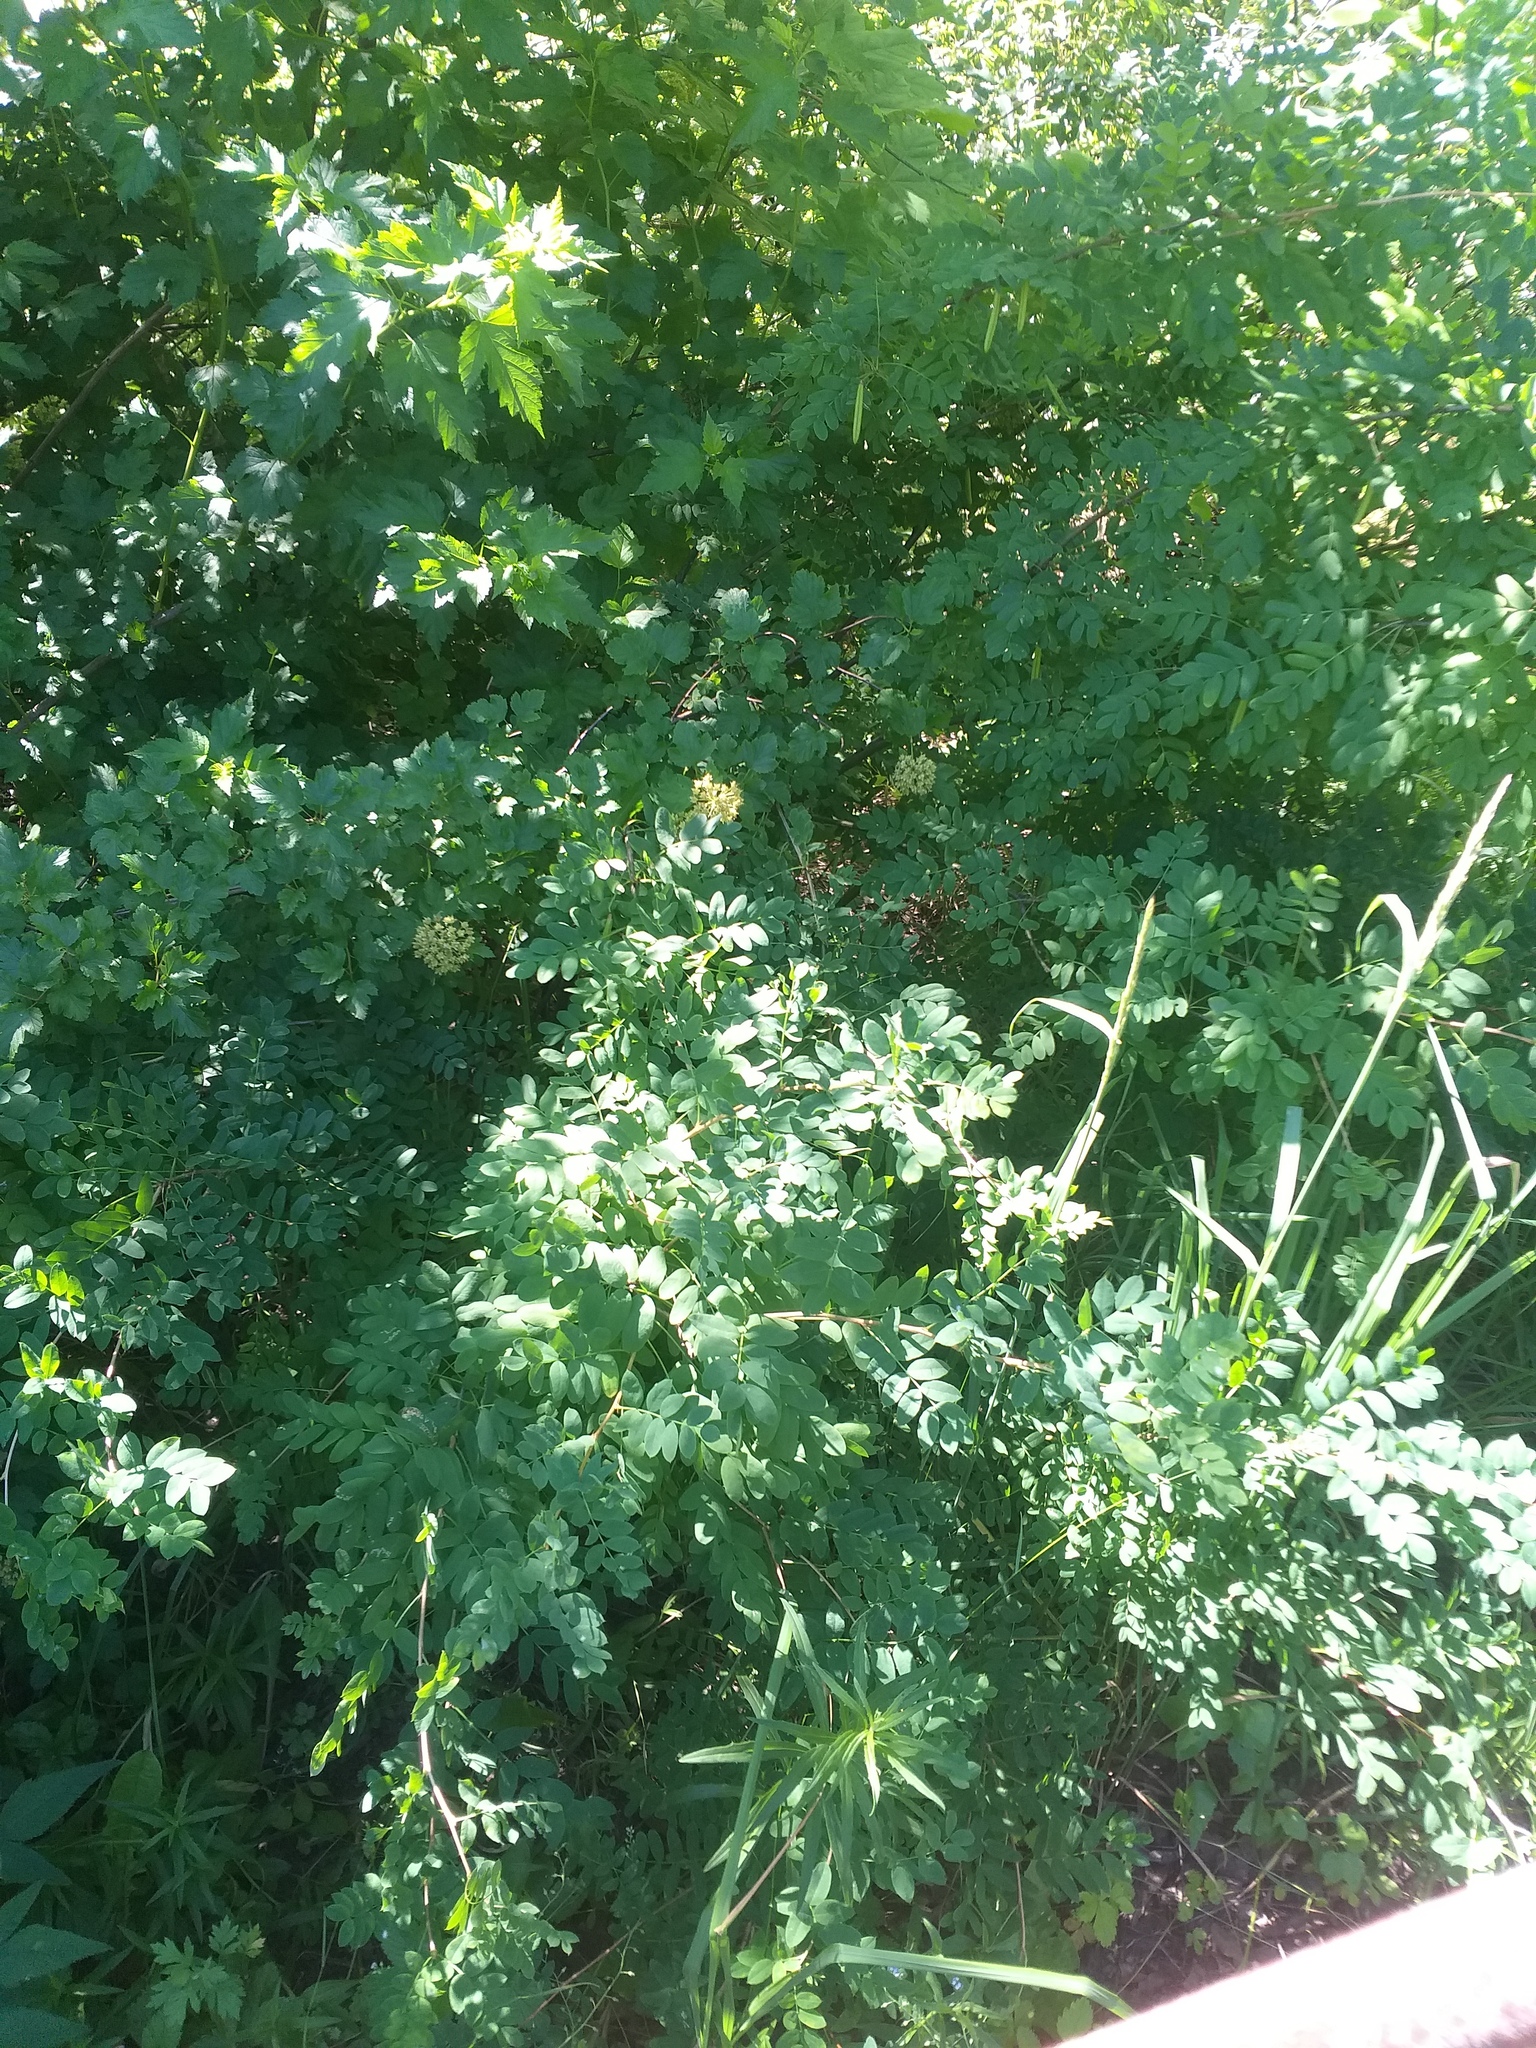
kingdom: Plantae
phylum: Tracheophyta
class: Magnoliopsida
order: Fabales
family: Fabaceae
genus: Caragana
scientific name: Caragana arborescens
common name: Siberian peashrub
